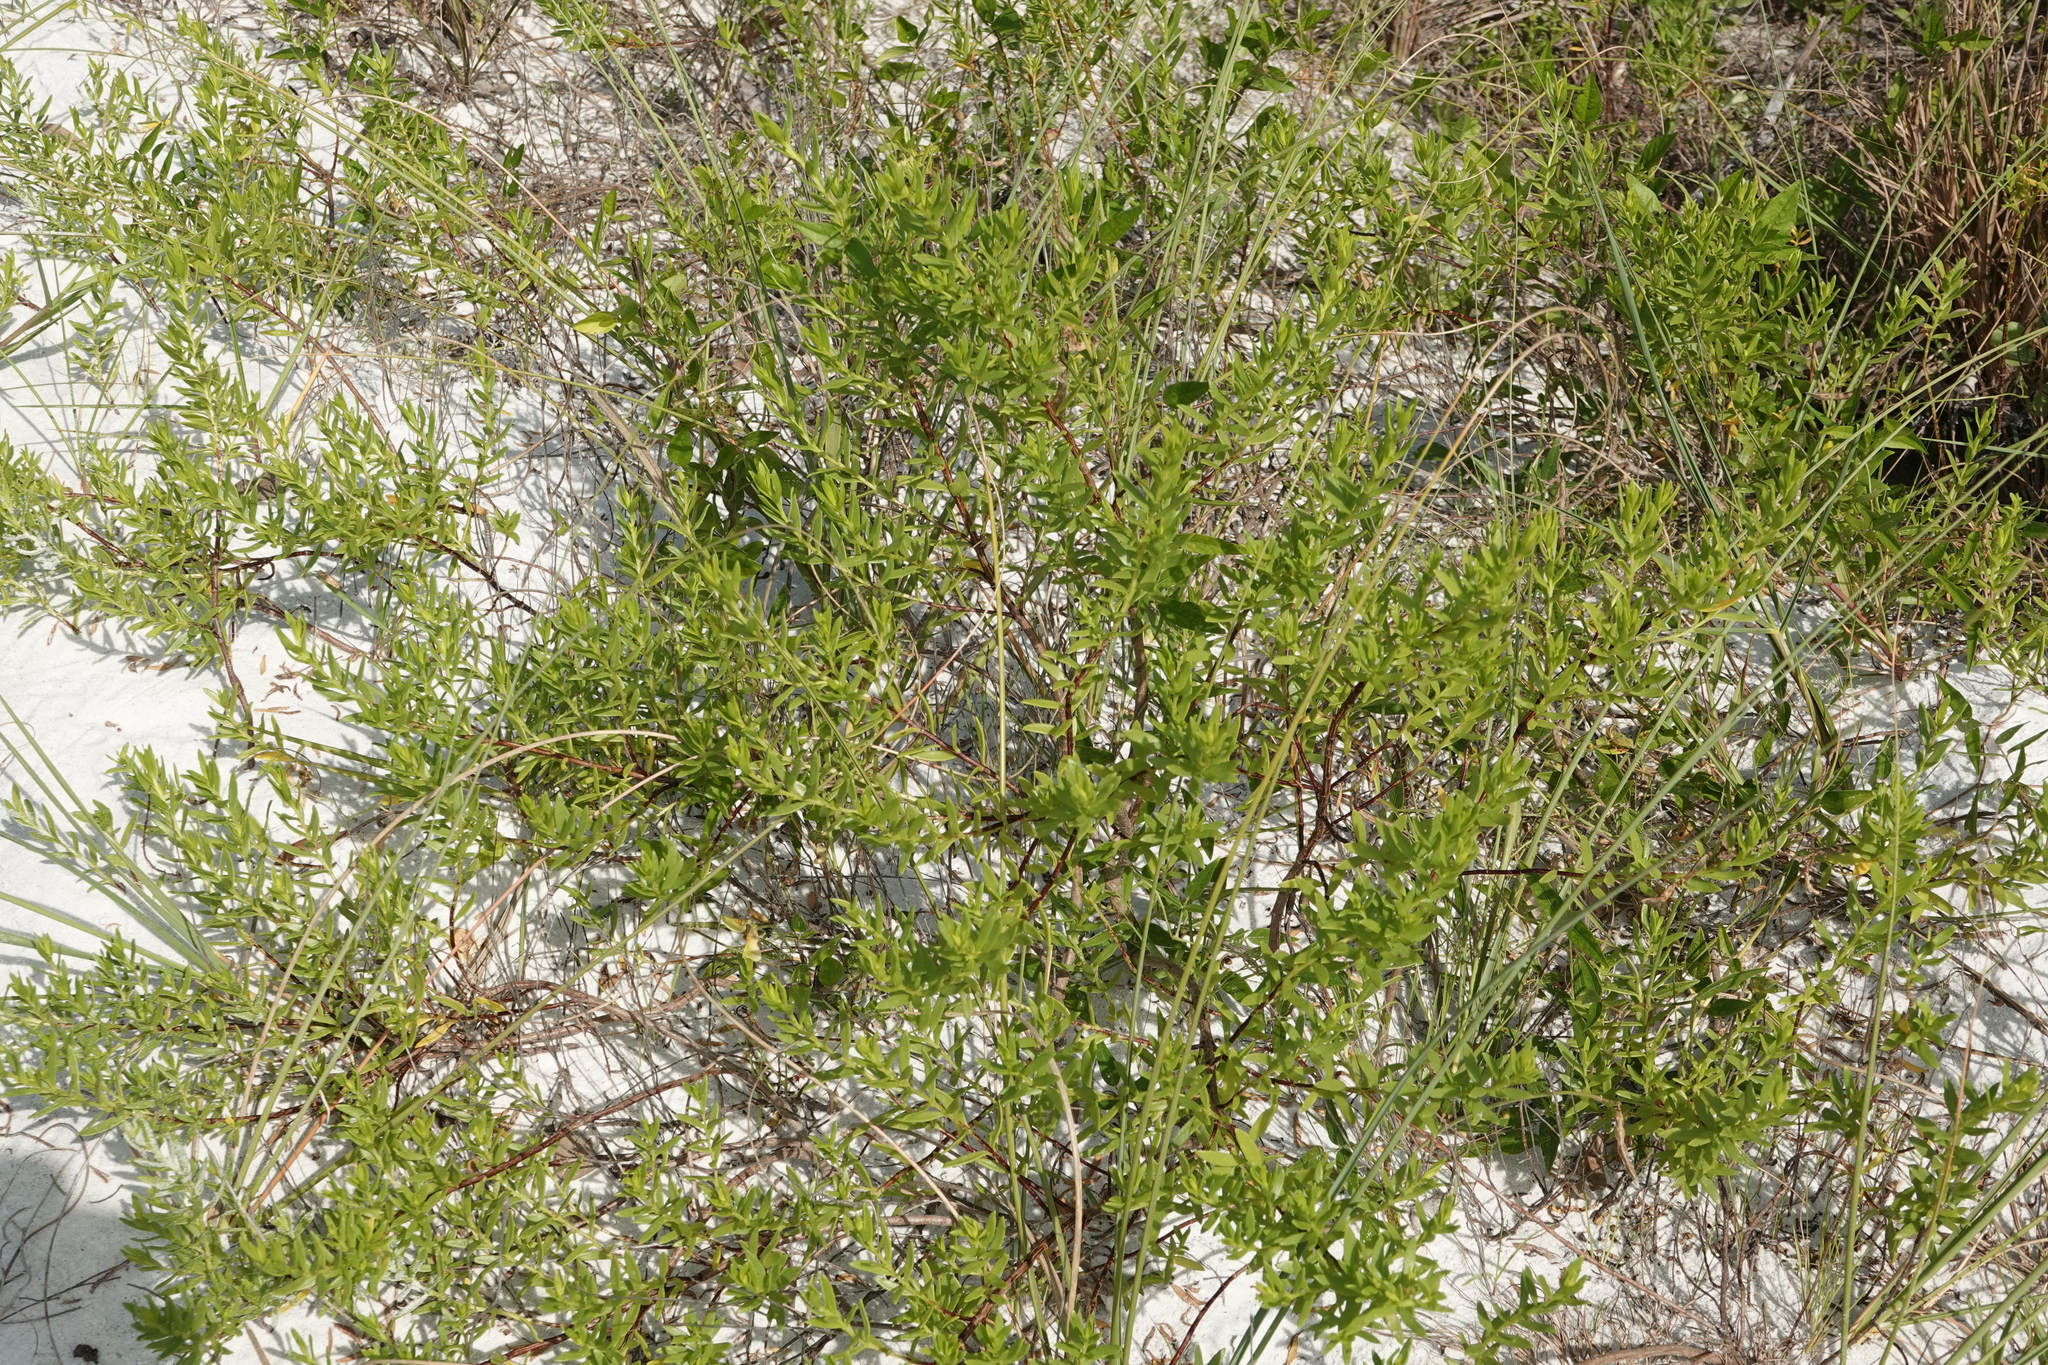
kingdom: Plantae
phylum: Tracheophyta
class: Magnoliopsida
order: Asterales
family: Asteraceae
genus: Iva
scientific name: Iva imbricata
